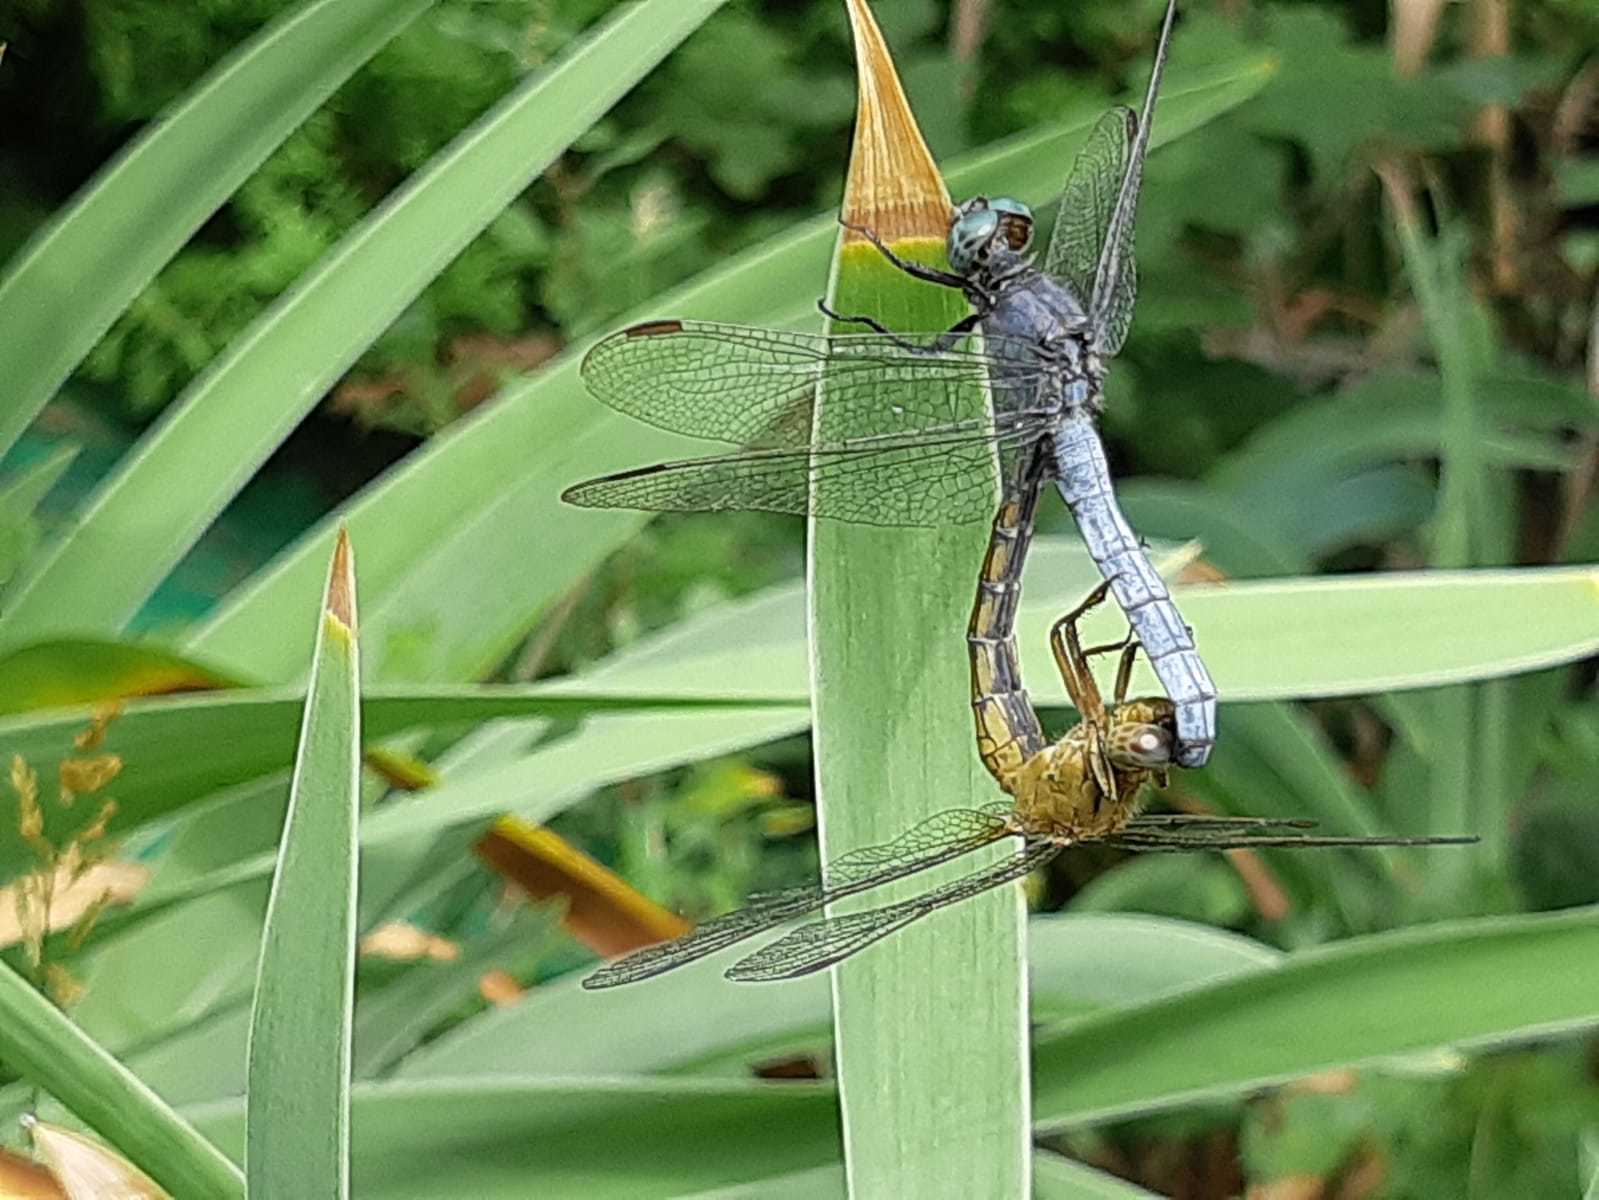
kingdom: Animalia
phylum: Arthropoda
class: Insecta
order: Odonata
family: Libellulidae
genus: Orthetrum
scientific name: Orthetrum coerulescens
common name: Keeled skimmer
